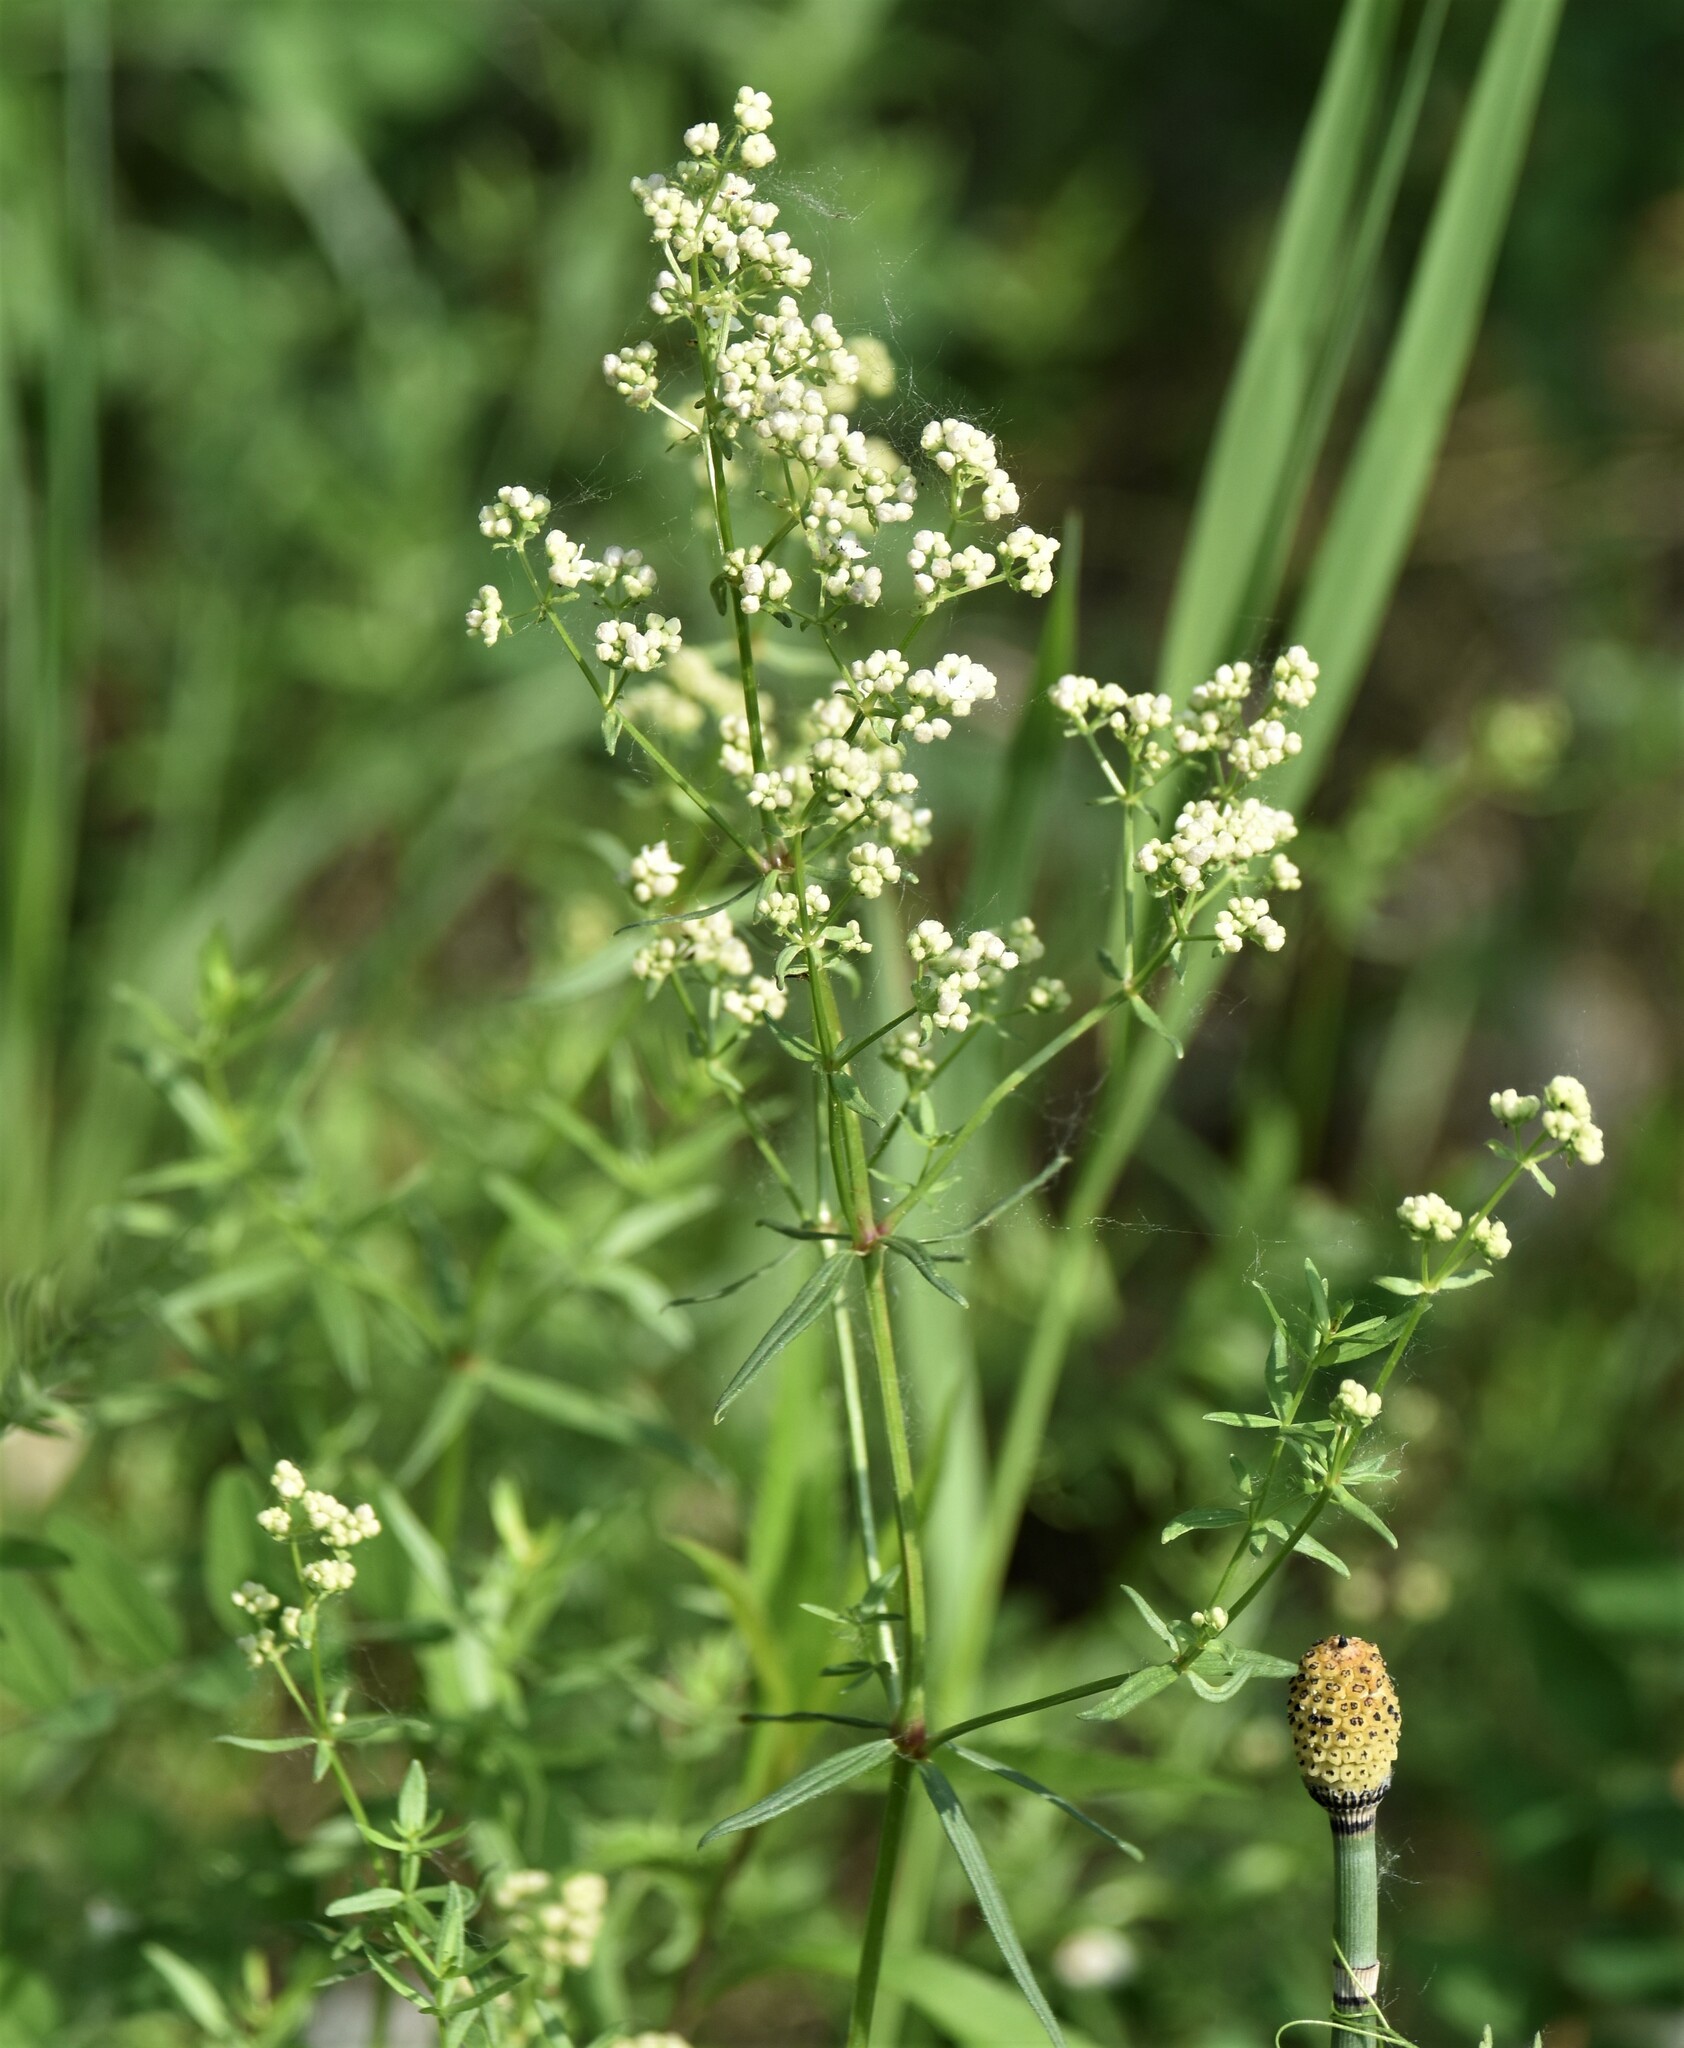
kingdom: Plantae
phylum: Tracheophyta
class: Magnoliopsida
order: Gentianales
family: Rubiaceae
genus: Galium
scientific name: Galium boreale
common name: Northern bedstraw
